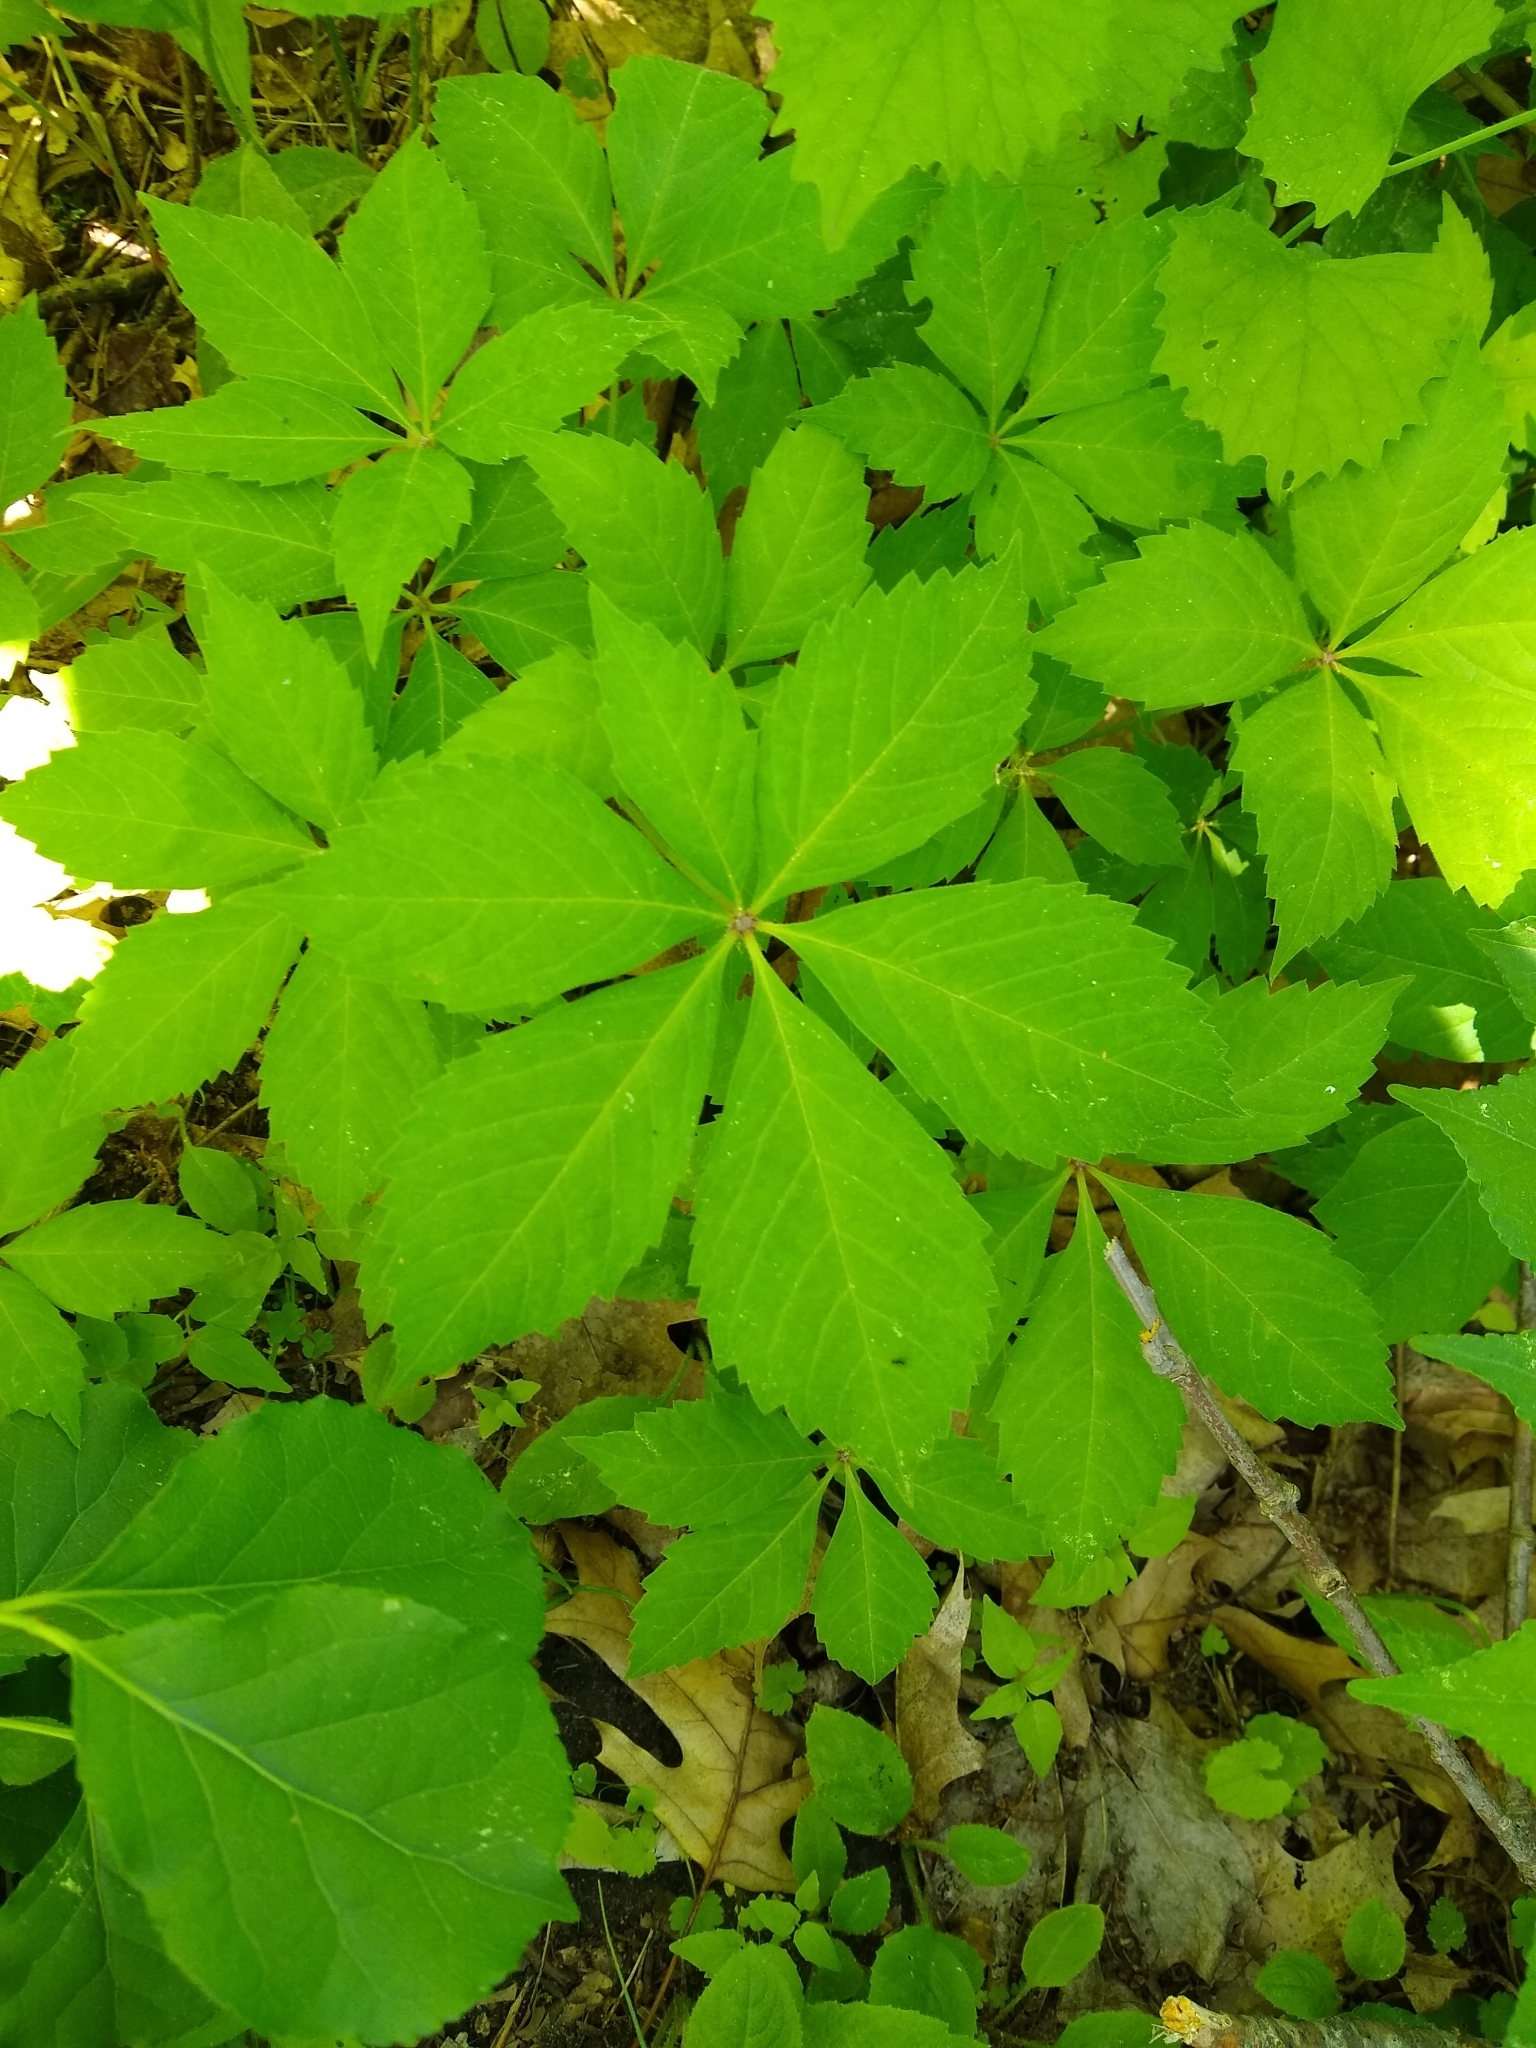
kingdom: Plantae
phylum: Tracheophyta
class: Magnoliopsida
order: Vitales
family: Vitaceae
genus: Parthenocissus
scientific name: Parthenocissus quinquefolia
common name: Virginia-creeper
